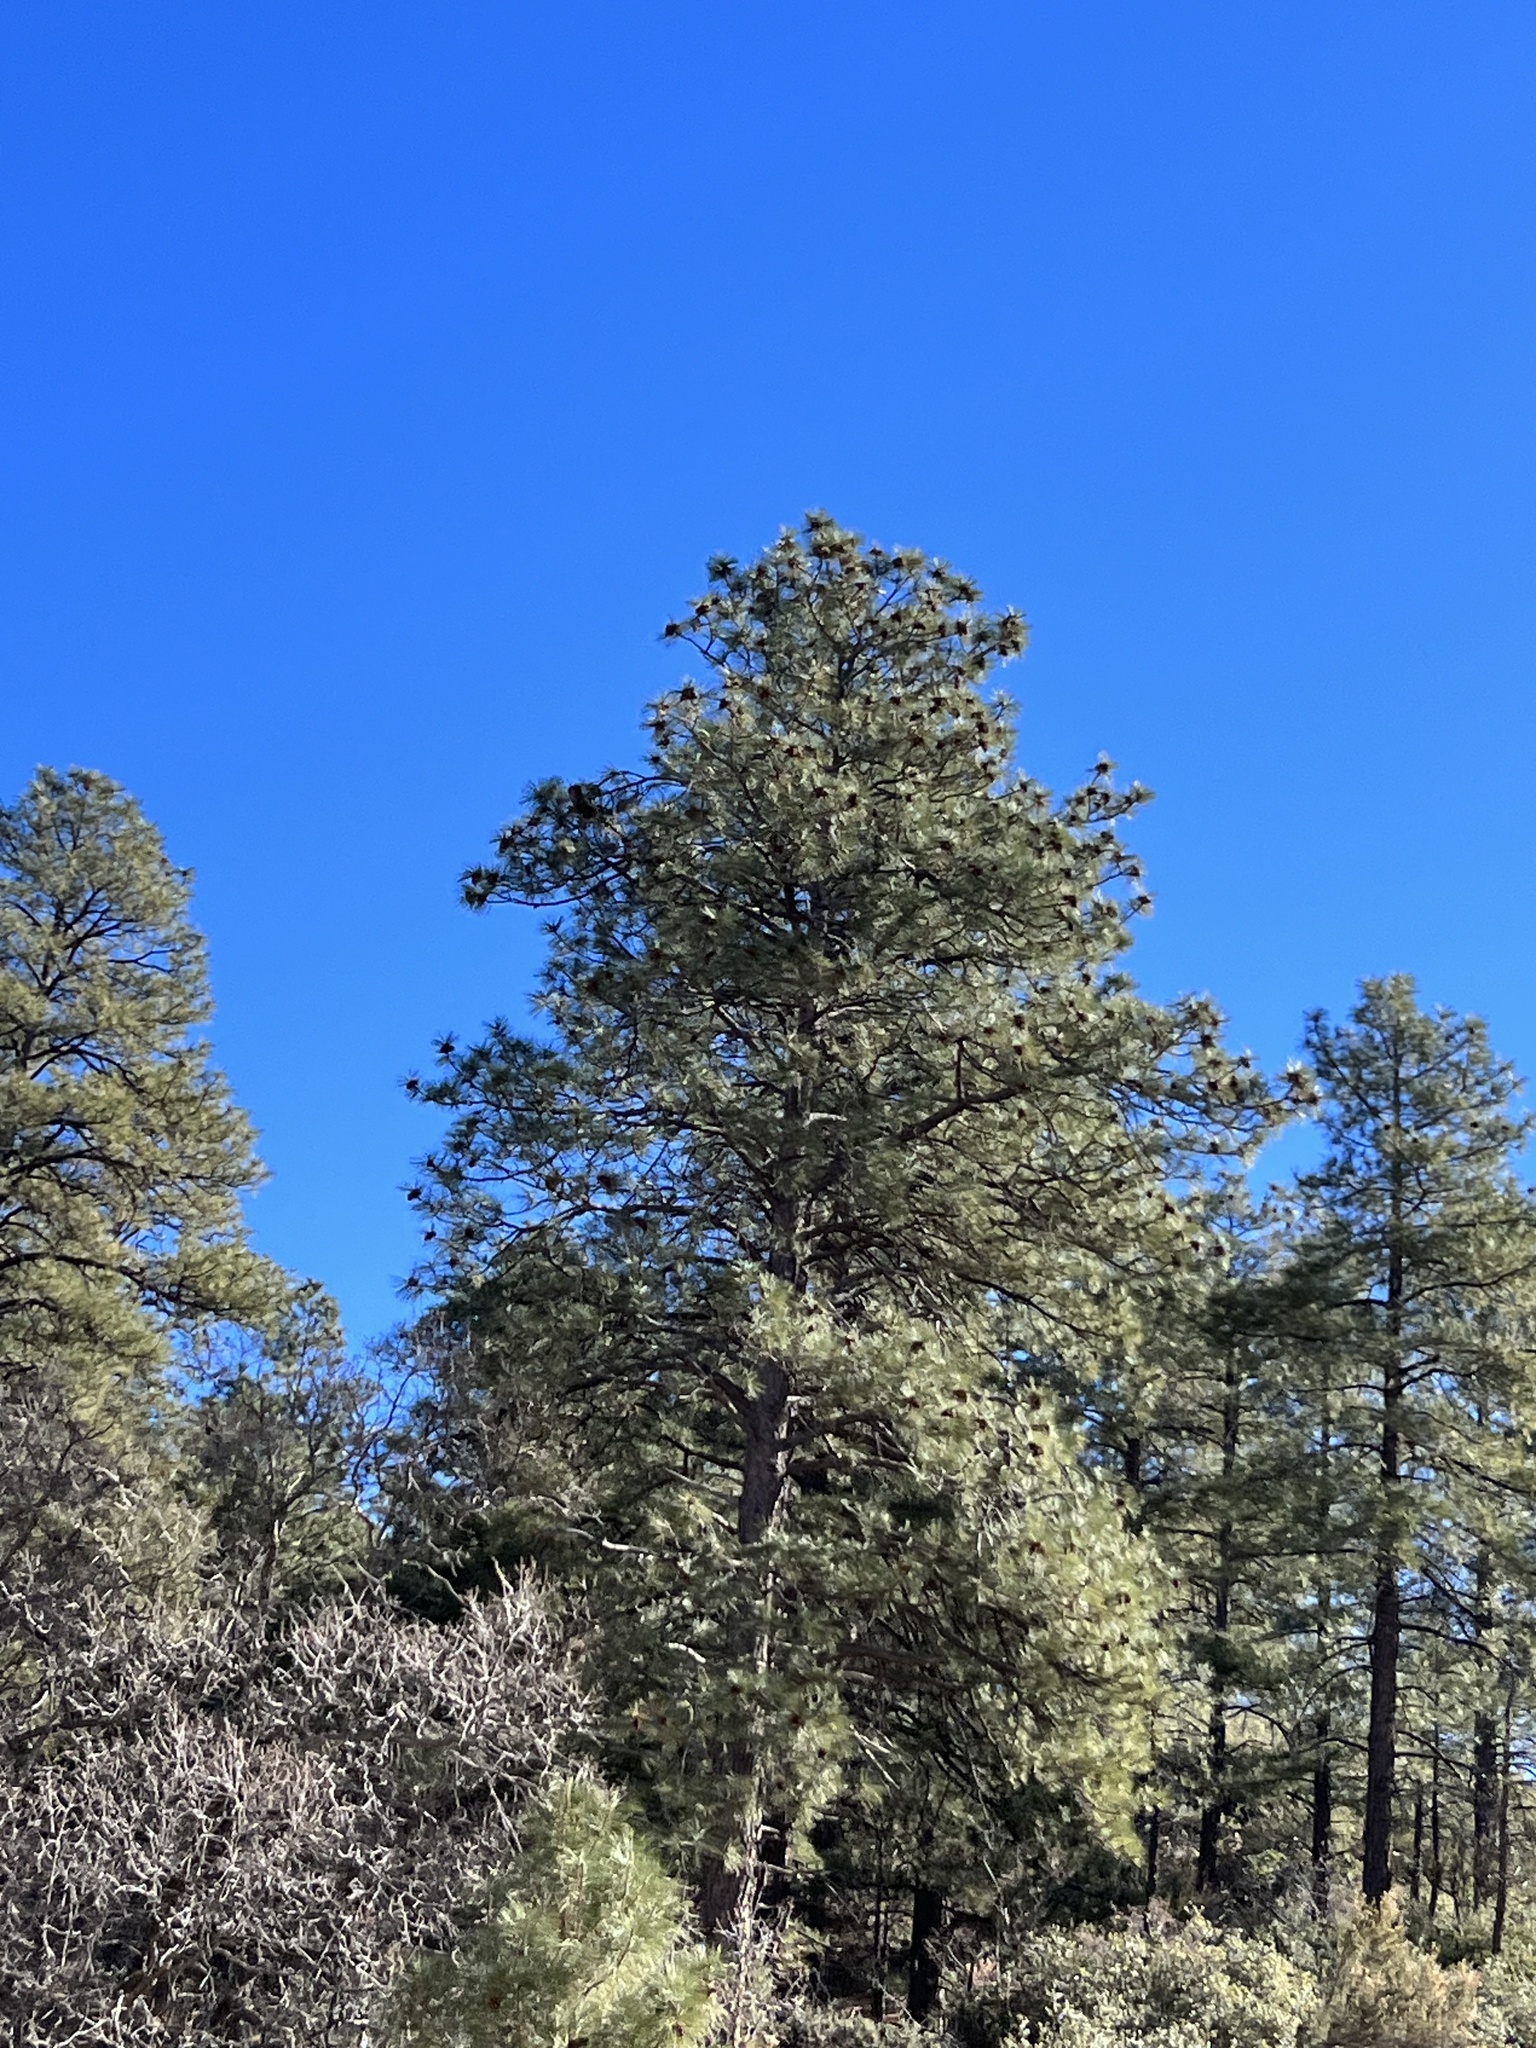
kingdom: Plantae
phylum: Tracheophyta
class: Pinopsida
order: Pinales
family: Pinaceae
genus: Pinus
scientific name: Pinus ponderosa
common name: Western yellow-pine
